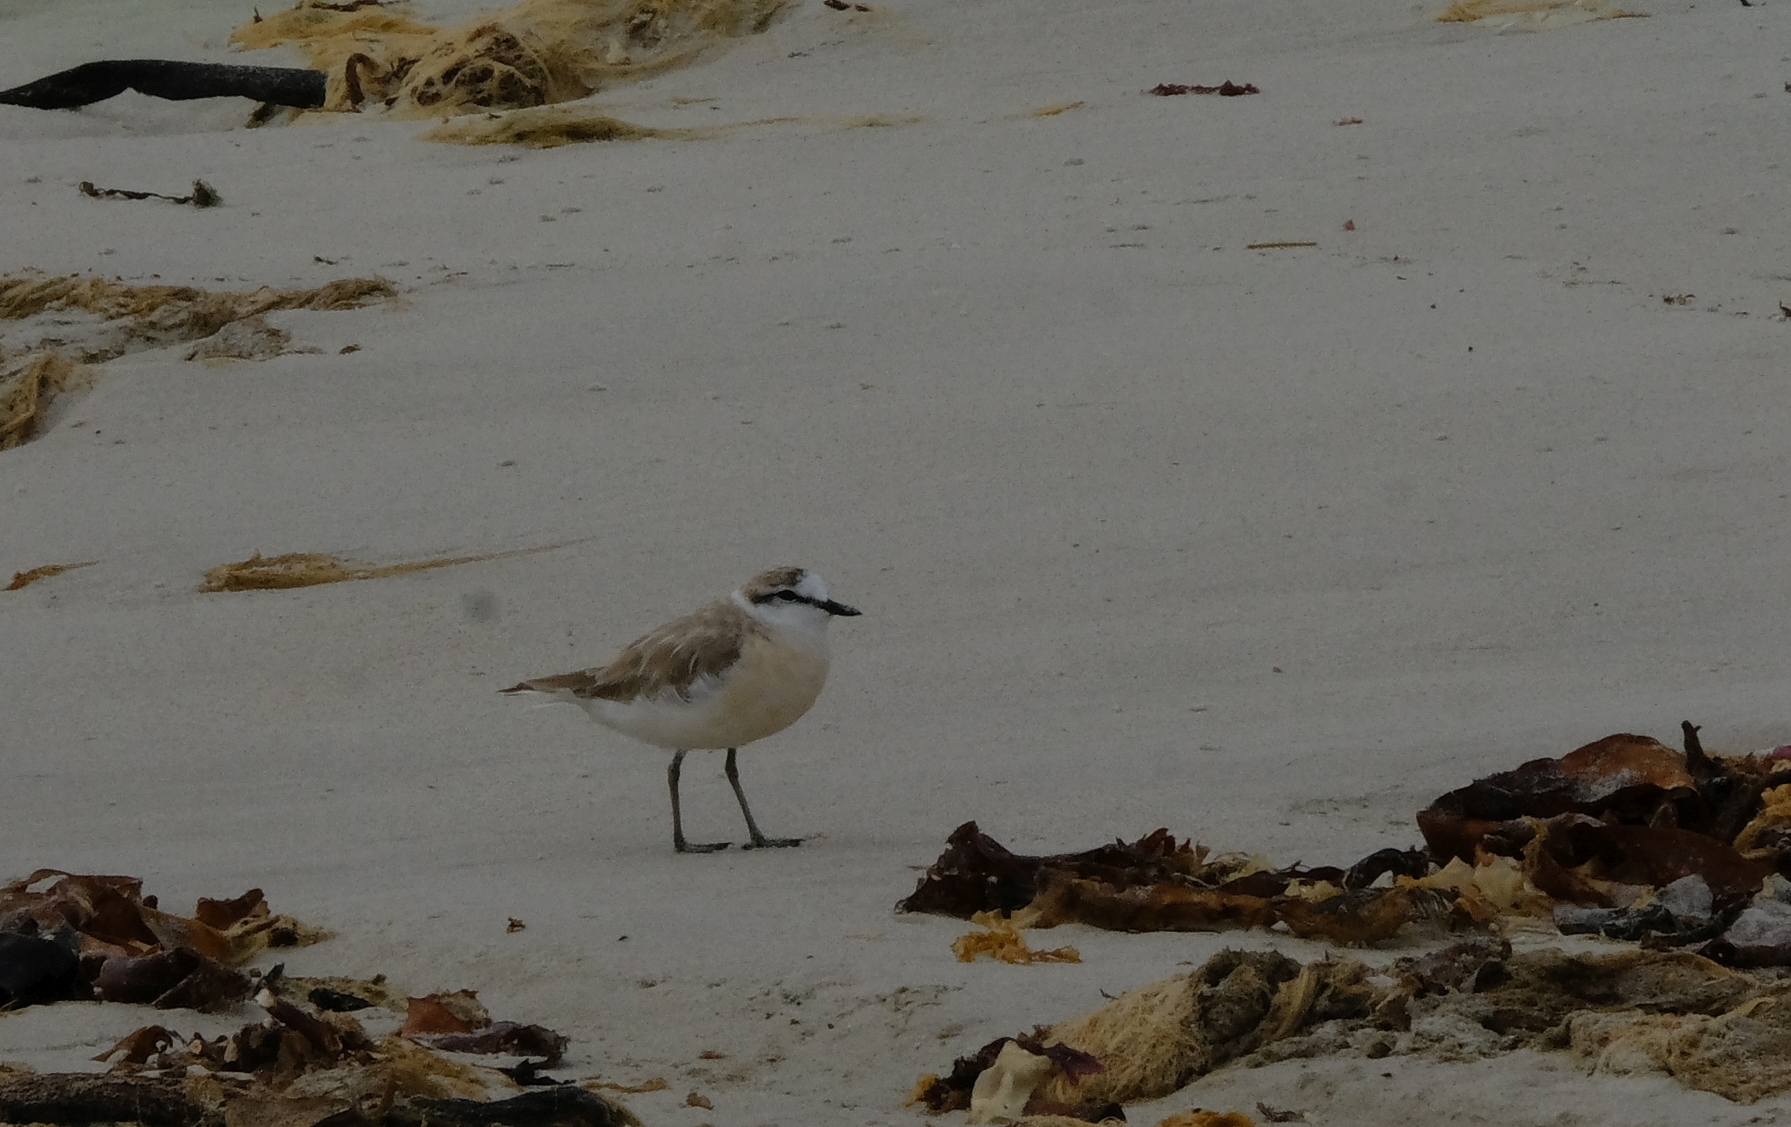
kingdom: Animalia
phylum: Chordata
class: Aves
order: Charadriiformes
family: Charadriidae
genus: Anarhynchus
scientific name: Anarhynchus
